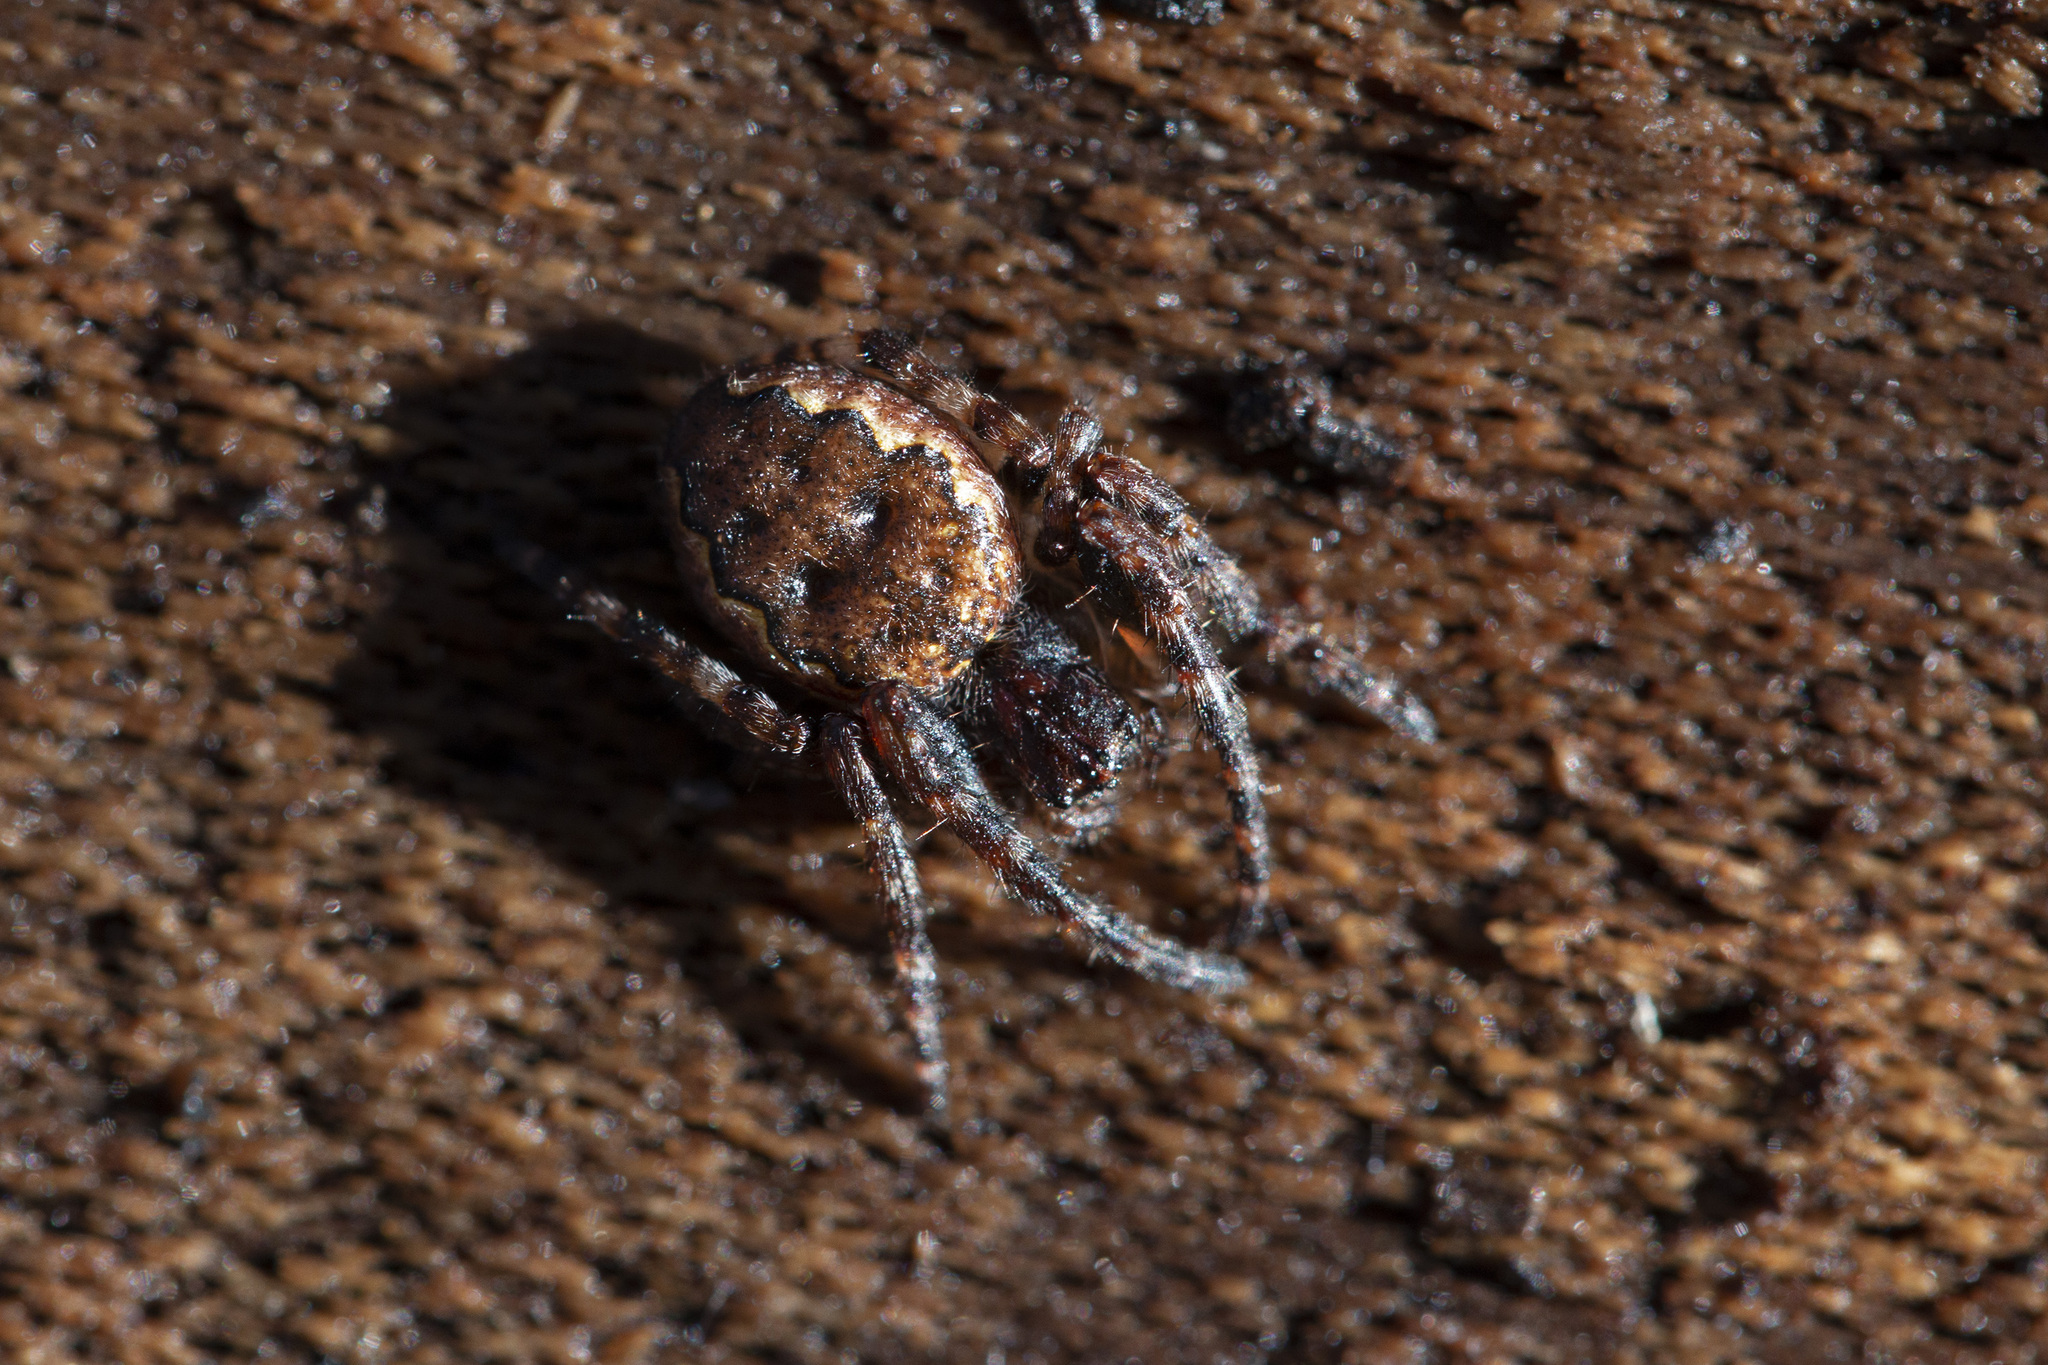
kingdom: Animalia
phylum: Arthropoda
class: Arachnida
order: Araneae
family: Araneidae
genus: Nuctenea
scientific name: Nuctenea umbratica
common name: Toad spider
